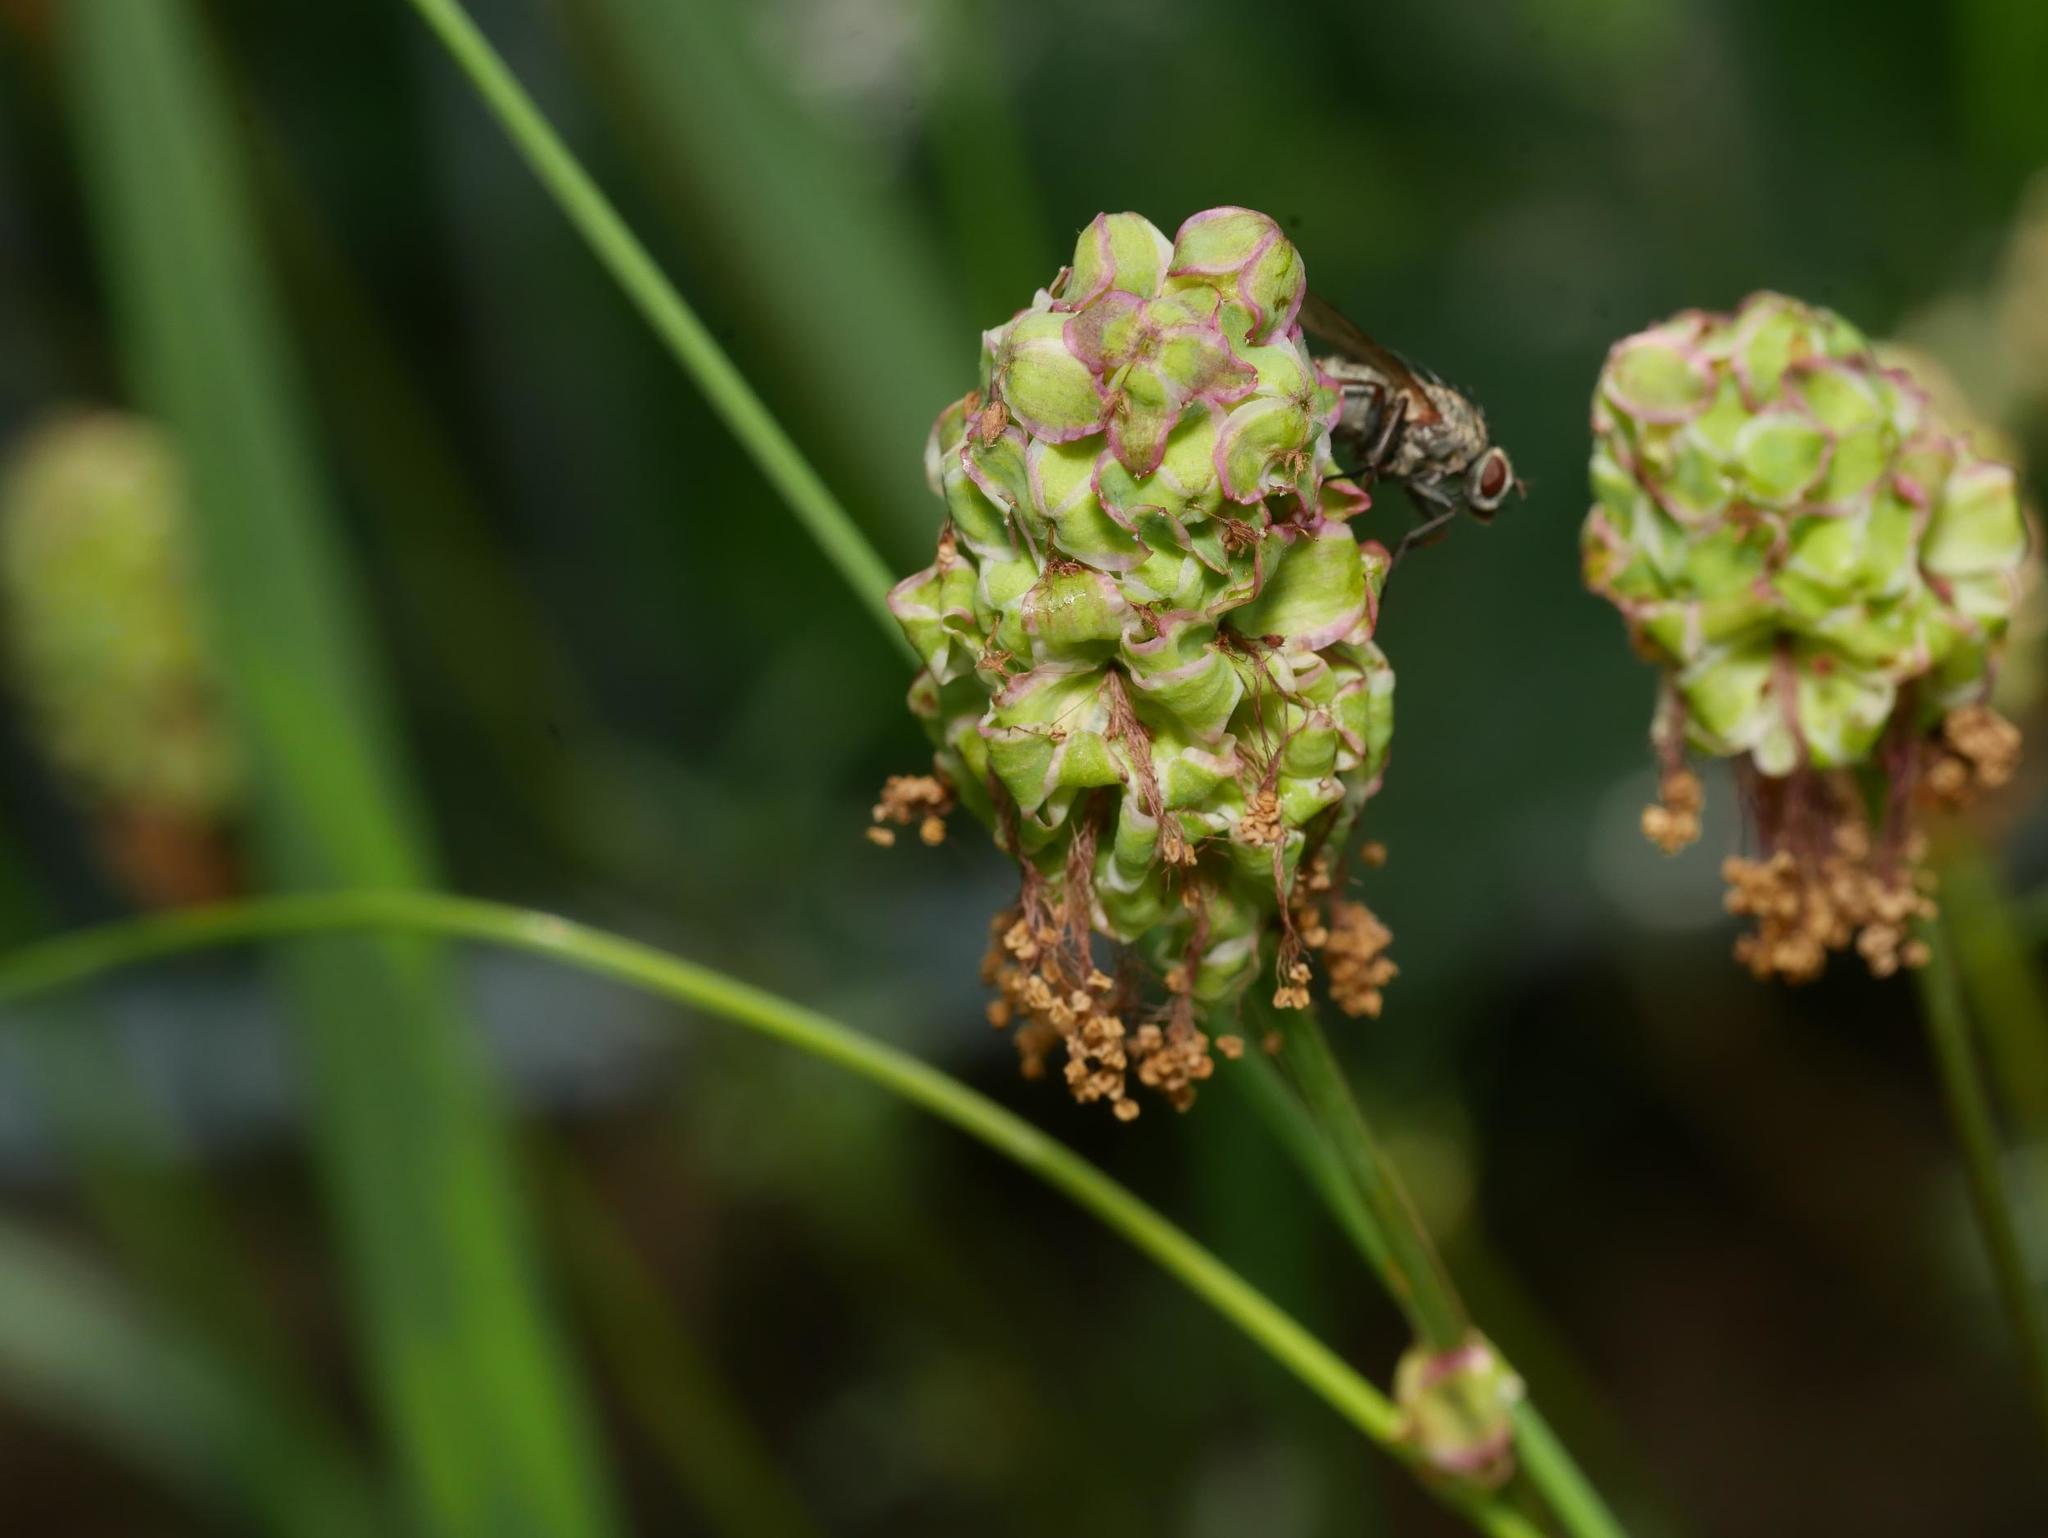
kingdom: Plantae
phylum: Tracheophyta
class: Magnoliopsida
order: Rosales
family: Rosaceae
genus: Poterium
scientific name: Poterium sanguisorba
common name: Salad burnet
